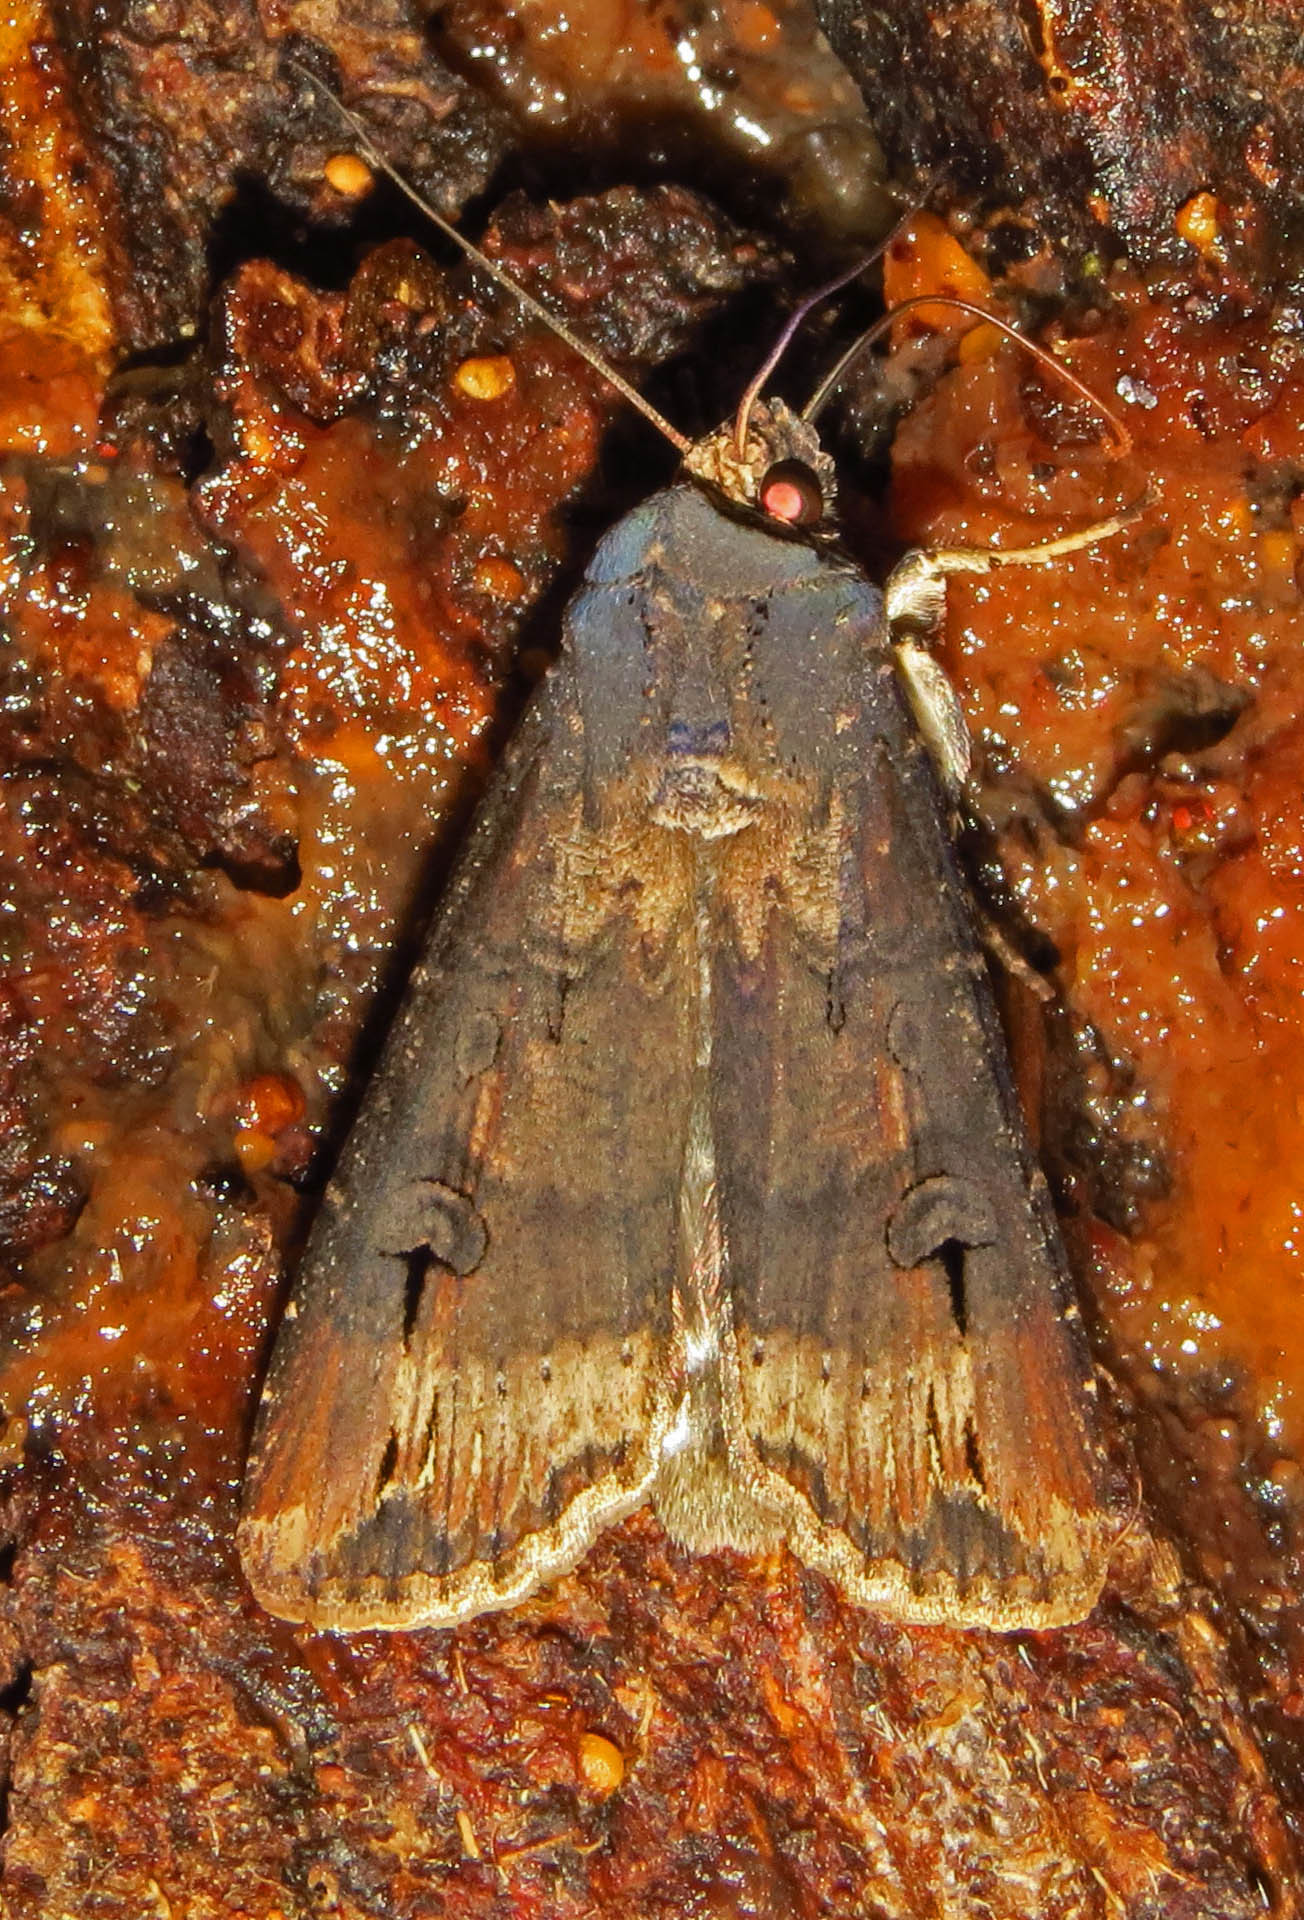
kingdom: Animalia
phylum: Arthropoda
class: Insecta
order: Lepidoptera
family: Noctuidae
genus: Agrotis
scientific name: Agrotis ipsilon
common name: Dark sword-grass
